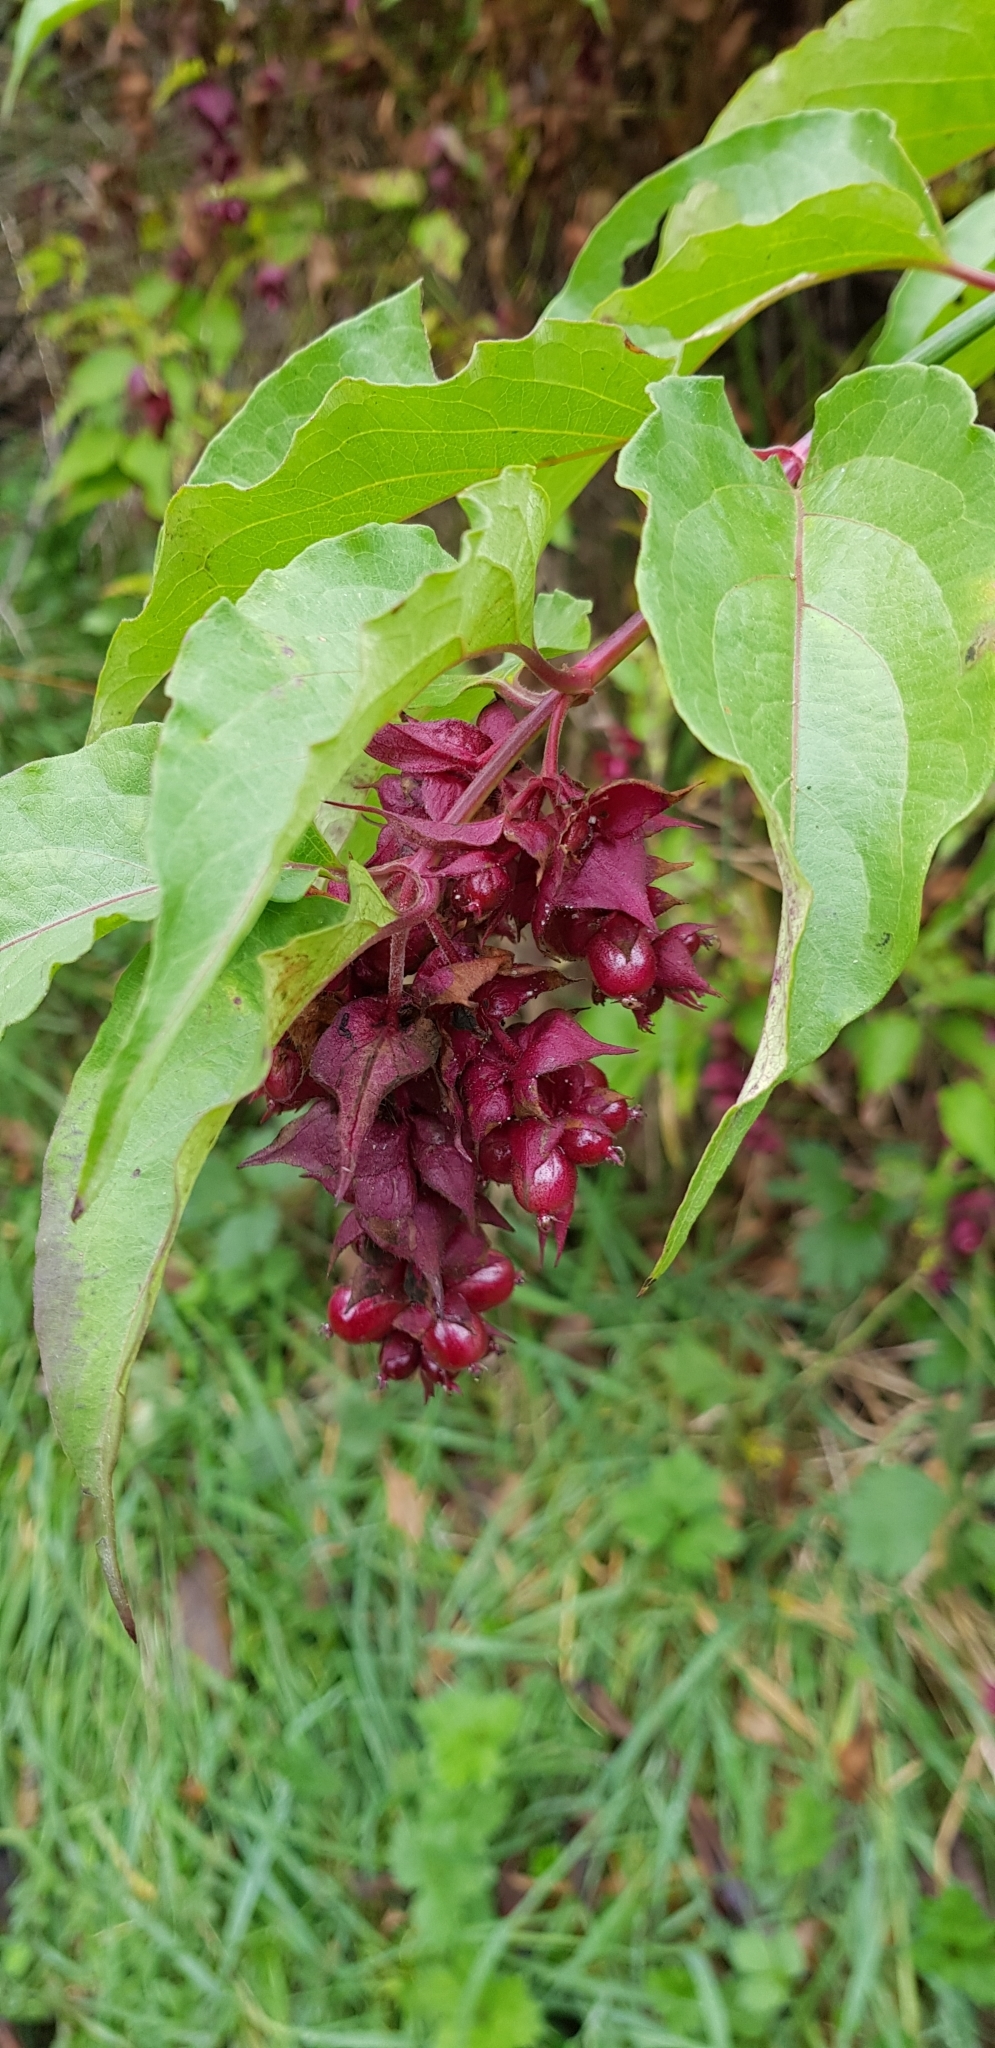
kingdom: Plantae
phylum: Tracheophyta
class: Magnoliopsida
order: Dipsacales
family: Caprifoliaceae
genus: Leycesteria
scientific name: Leycesteria formosa
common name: Himalayan honeysuckle
